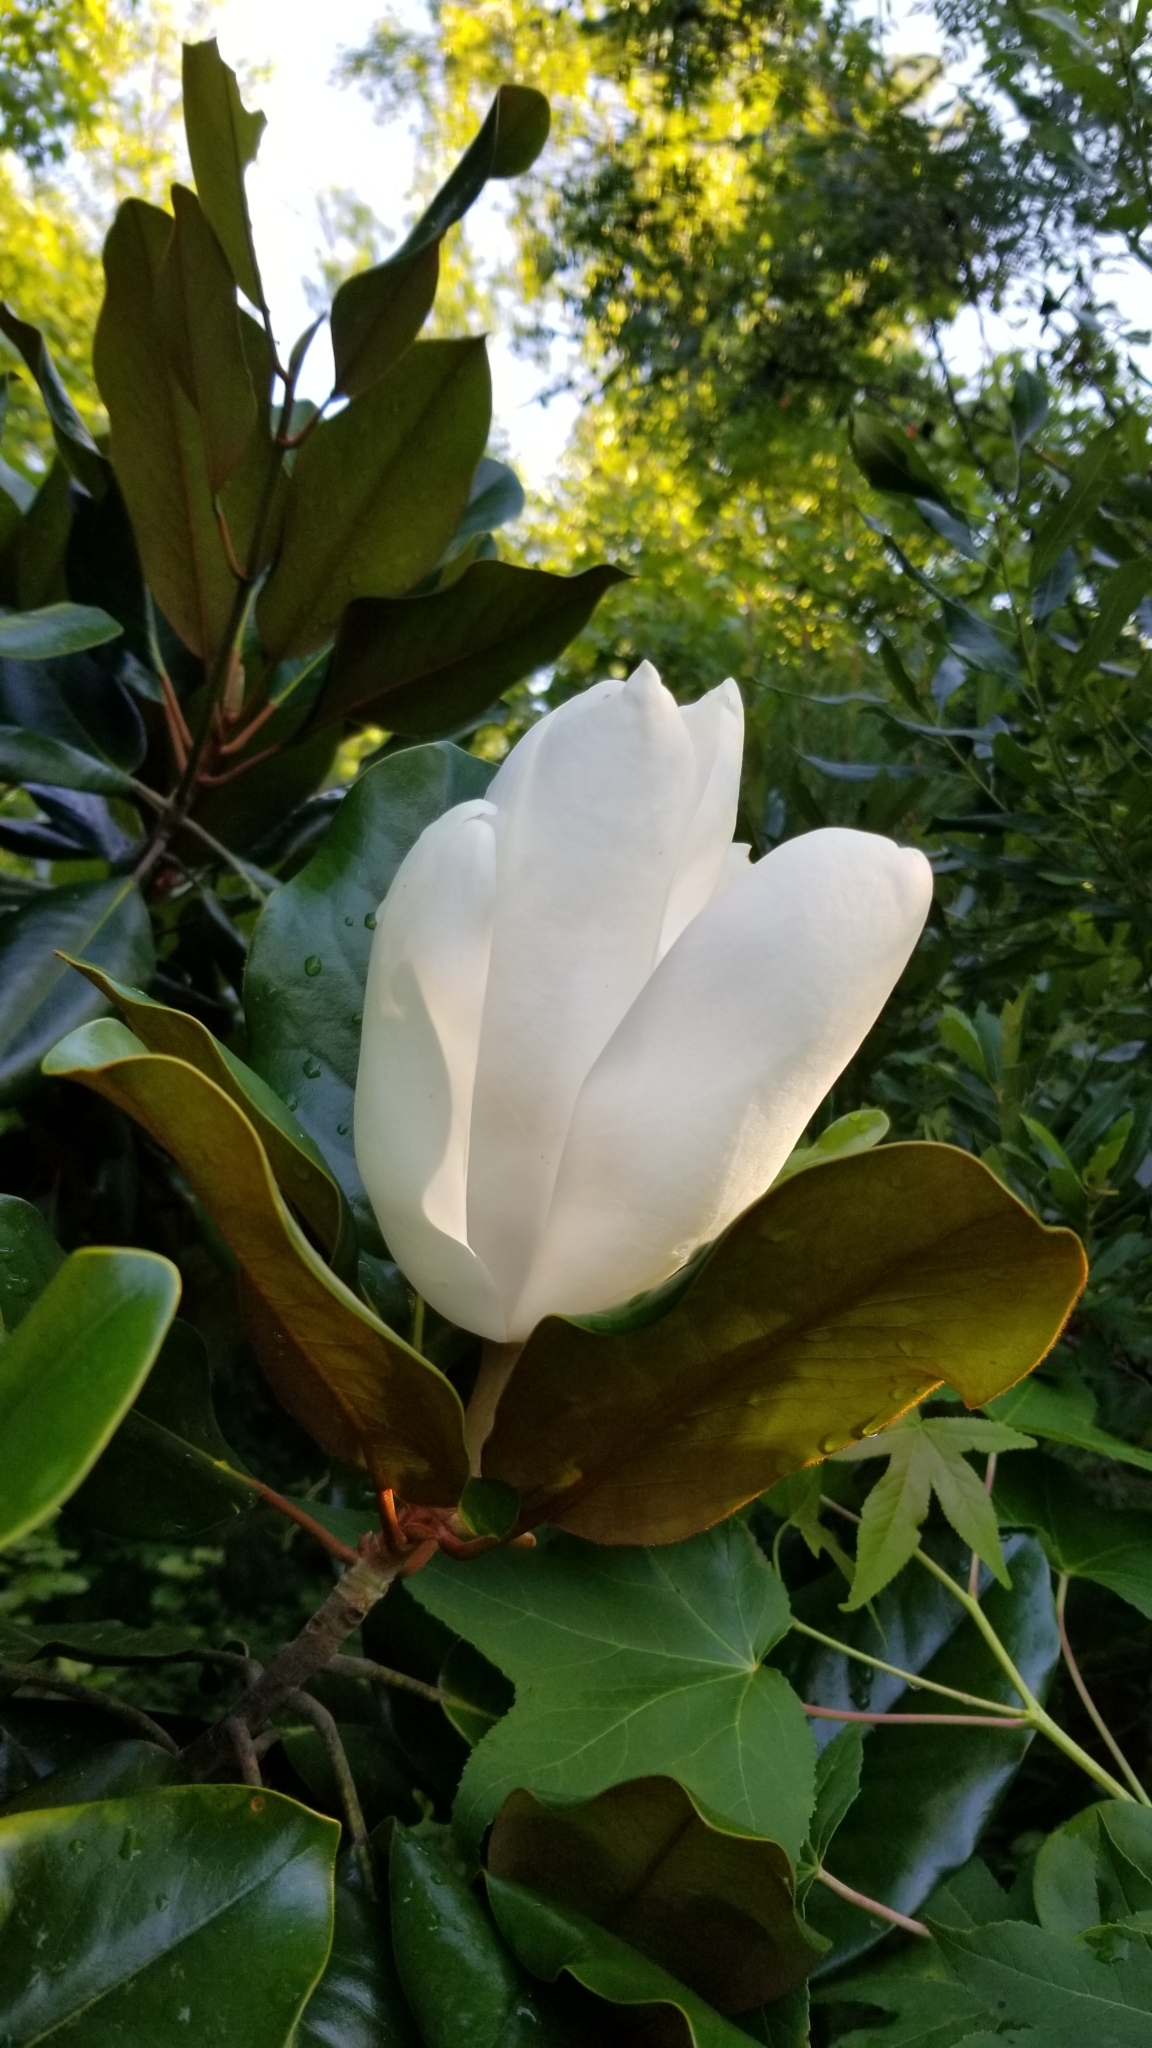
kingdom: Plantae
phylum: Tracheophyta
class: Magnoliopsida
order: Magnoliales
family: Magnoliaceae
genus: Magnolia
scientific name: Magnolia grandiflora
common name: Southern magnolia
